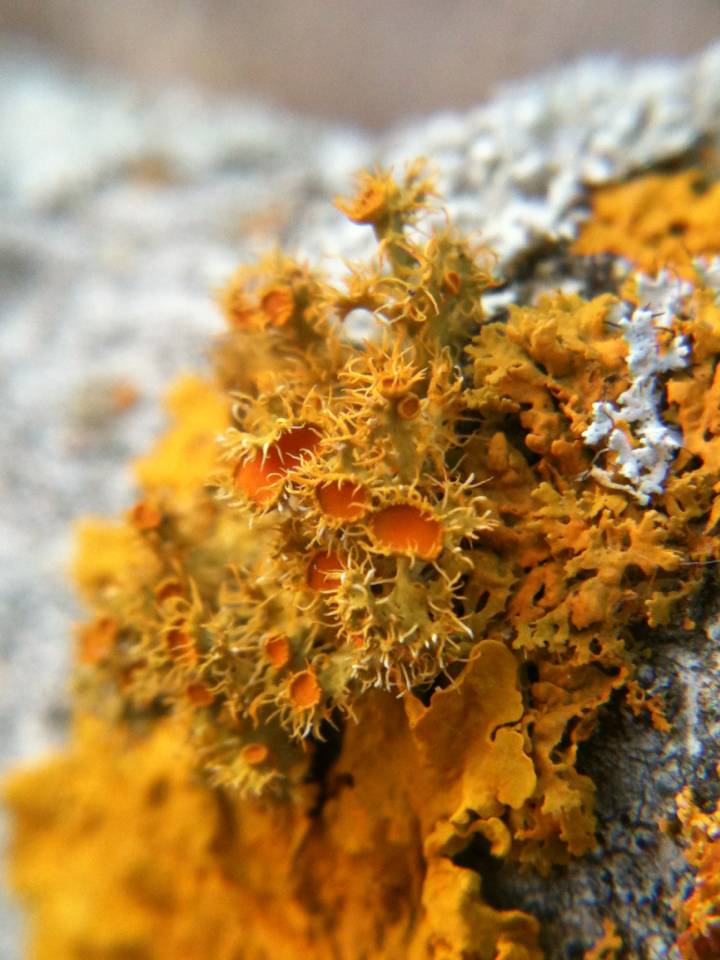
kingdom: Fungi
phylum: Ascomycota
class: Lecanoromycetes
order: Teloschistales
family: Teloschistaceae
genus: Niorma
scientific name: Niorma chrysophthalma
